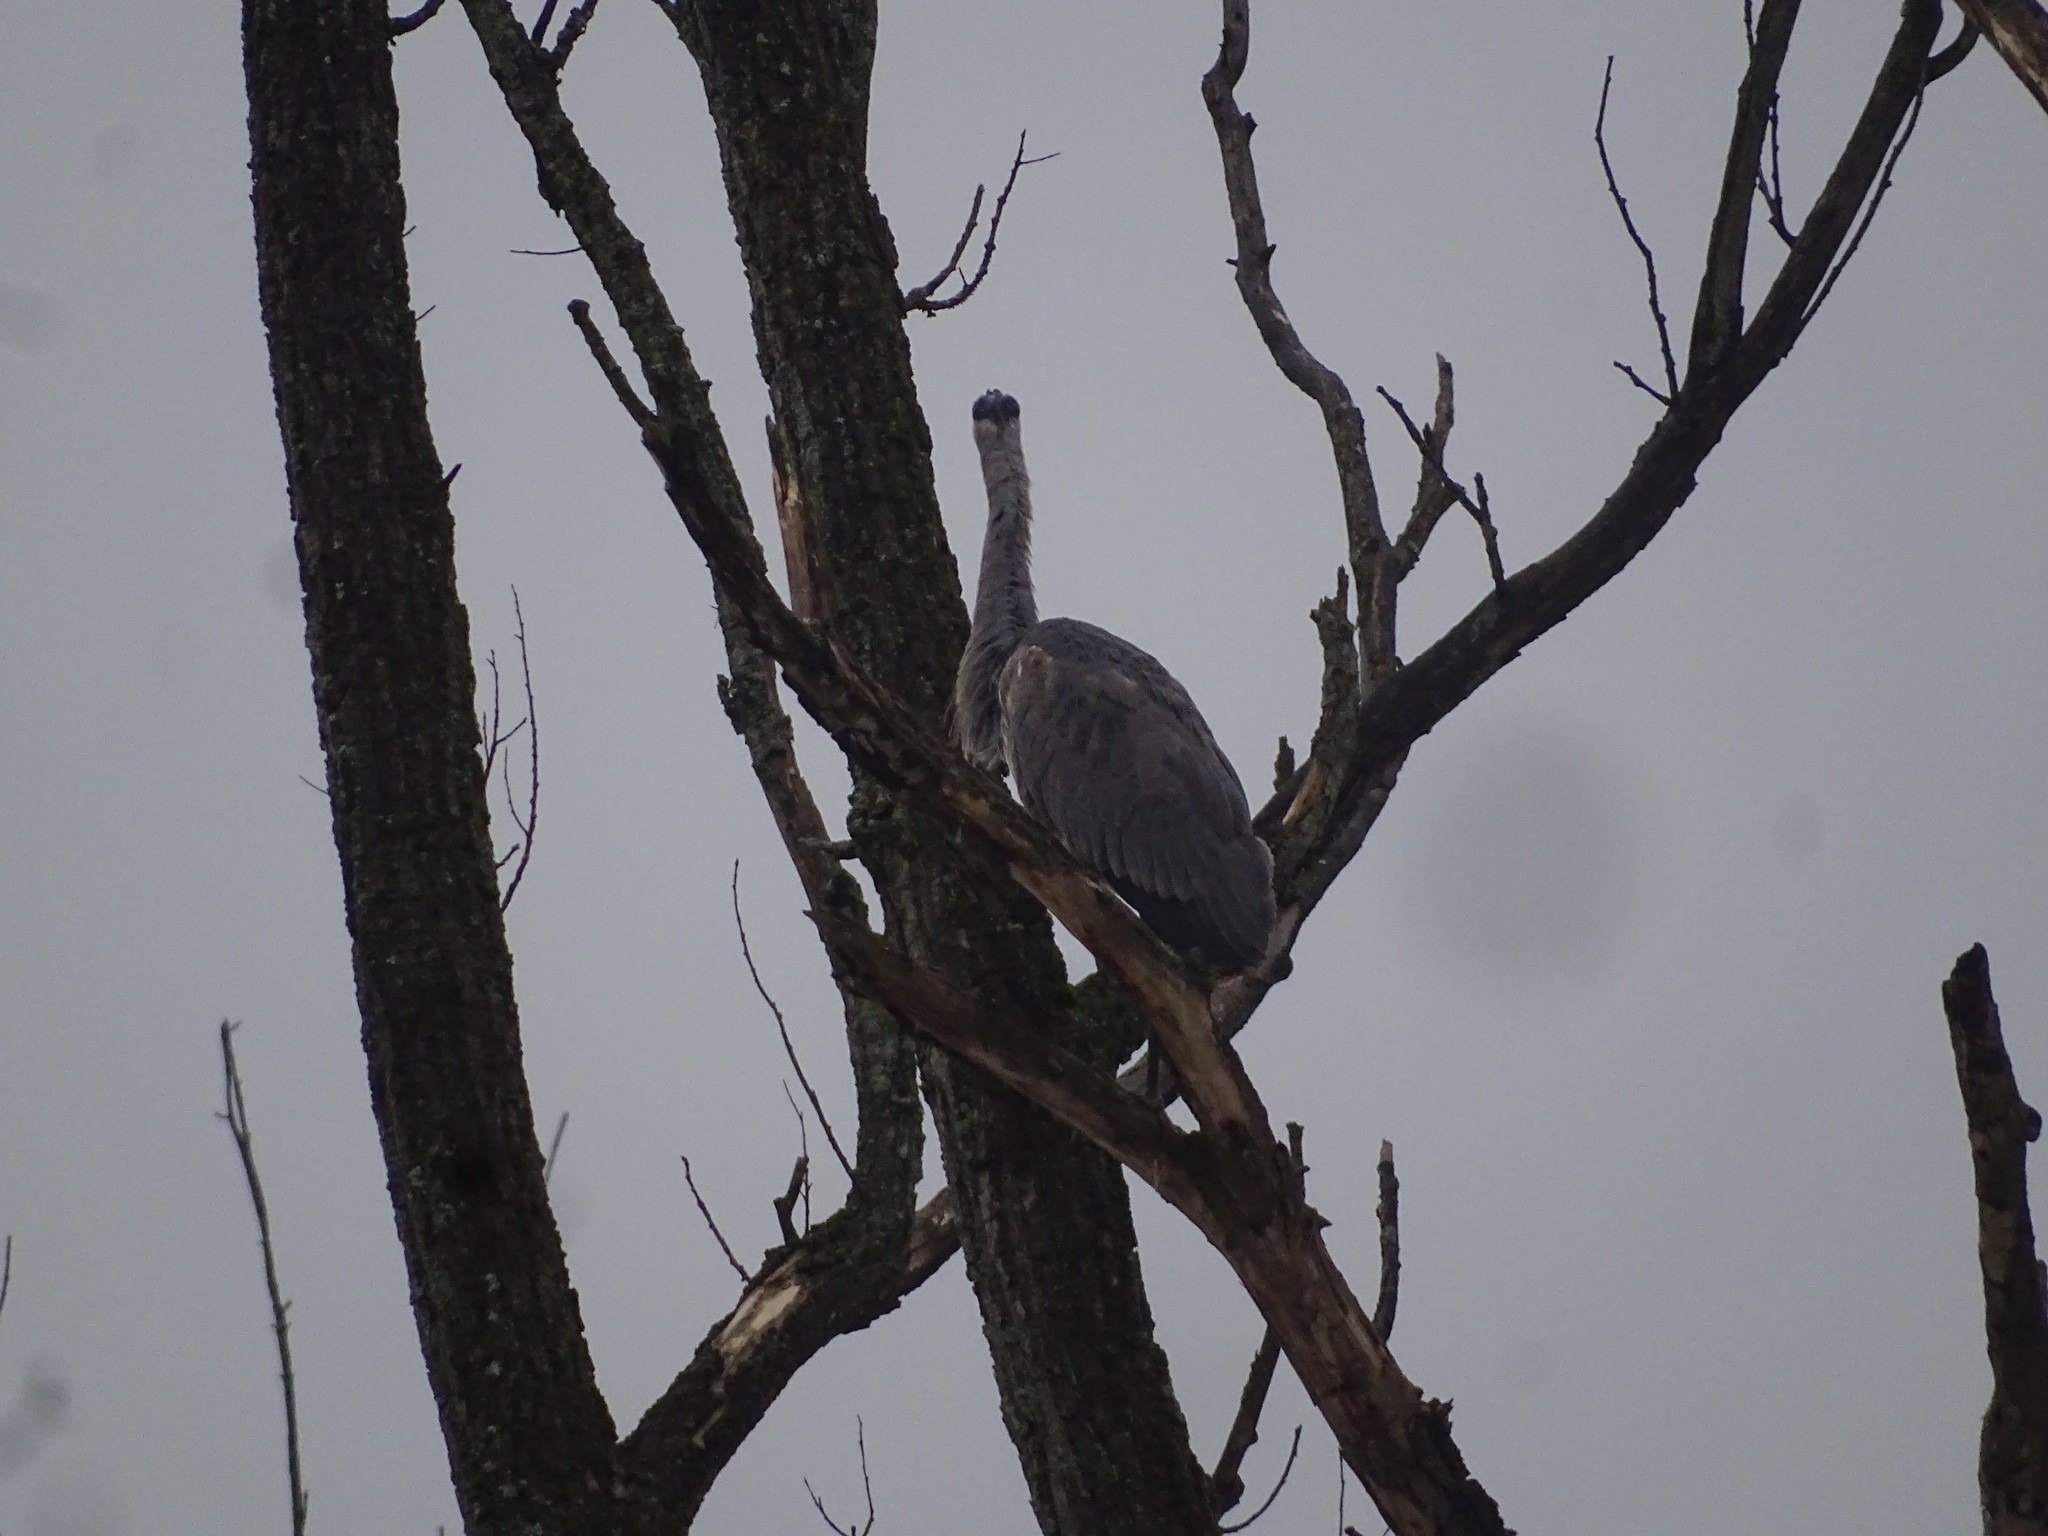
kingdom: Animalia
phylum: Chordata
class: Aves
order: Pelecaniformes
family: Ardeidae
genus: Ardea
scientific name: Ardea herodias
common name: Great blue heron
